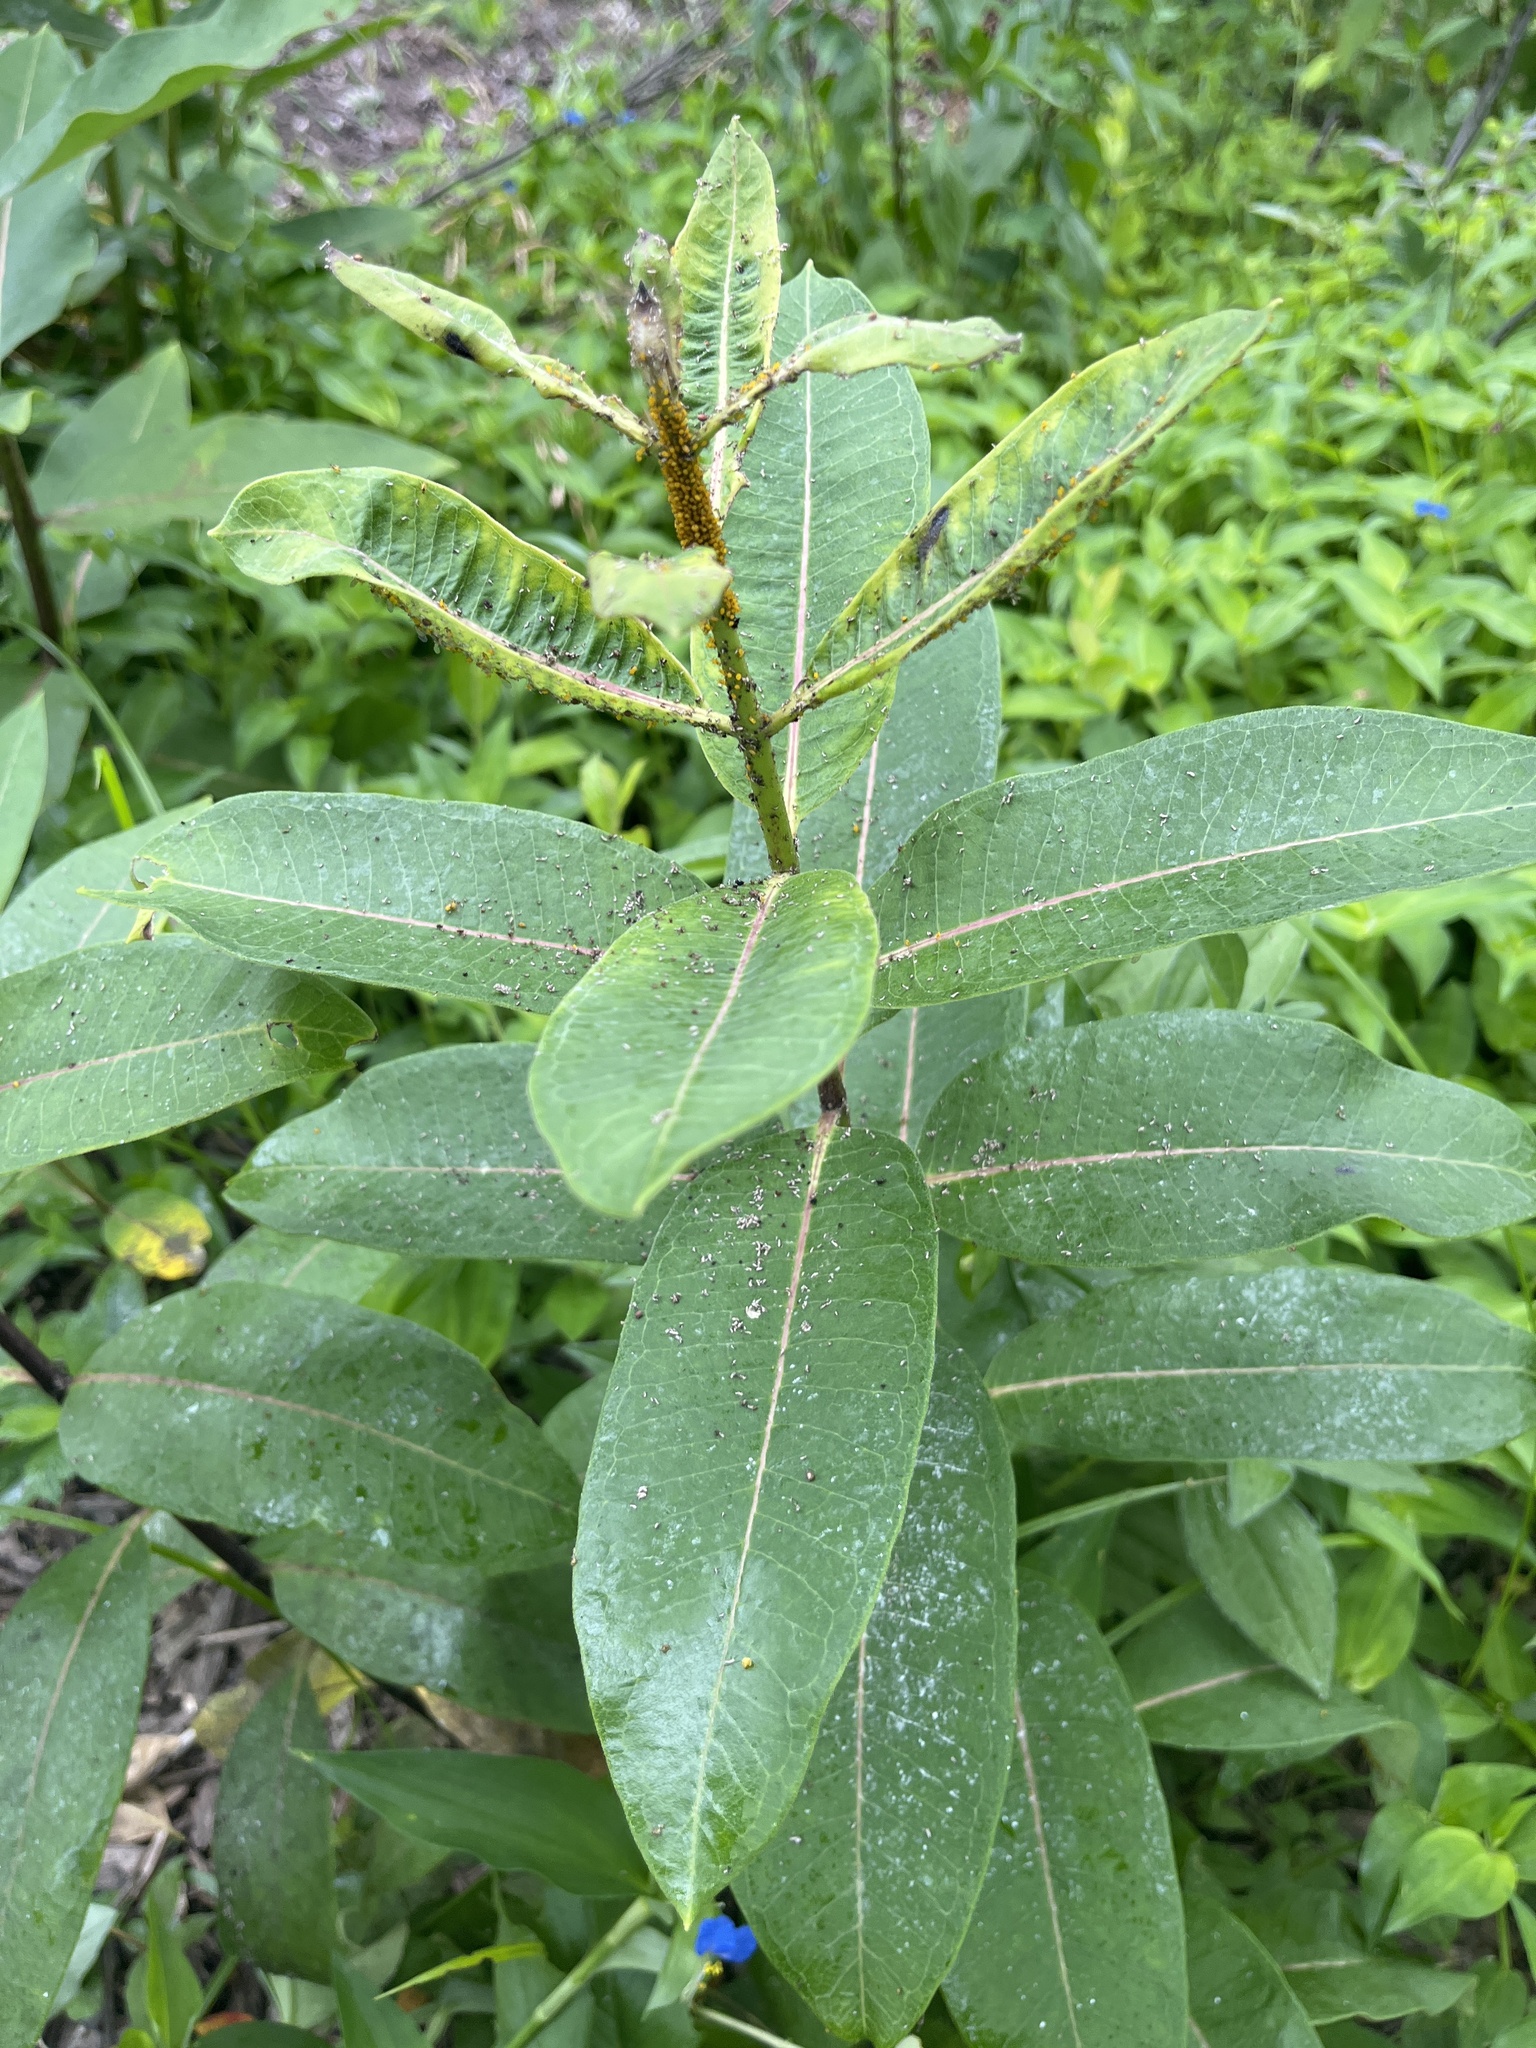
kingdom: Animalia
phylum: Arthropoda
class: Insecta
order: Hemiptera
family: Aphididae
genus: Aphis
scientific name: Aphis nerii
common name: Oleander aphid
